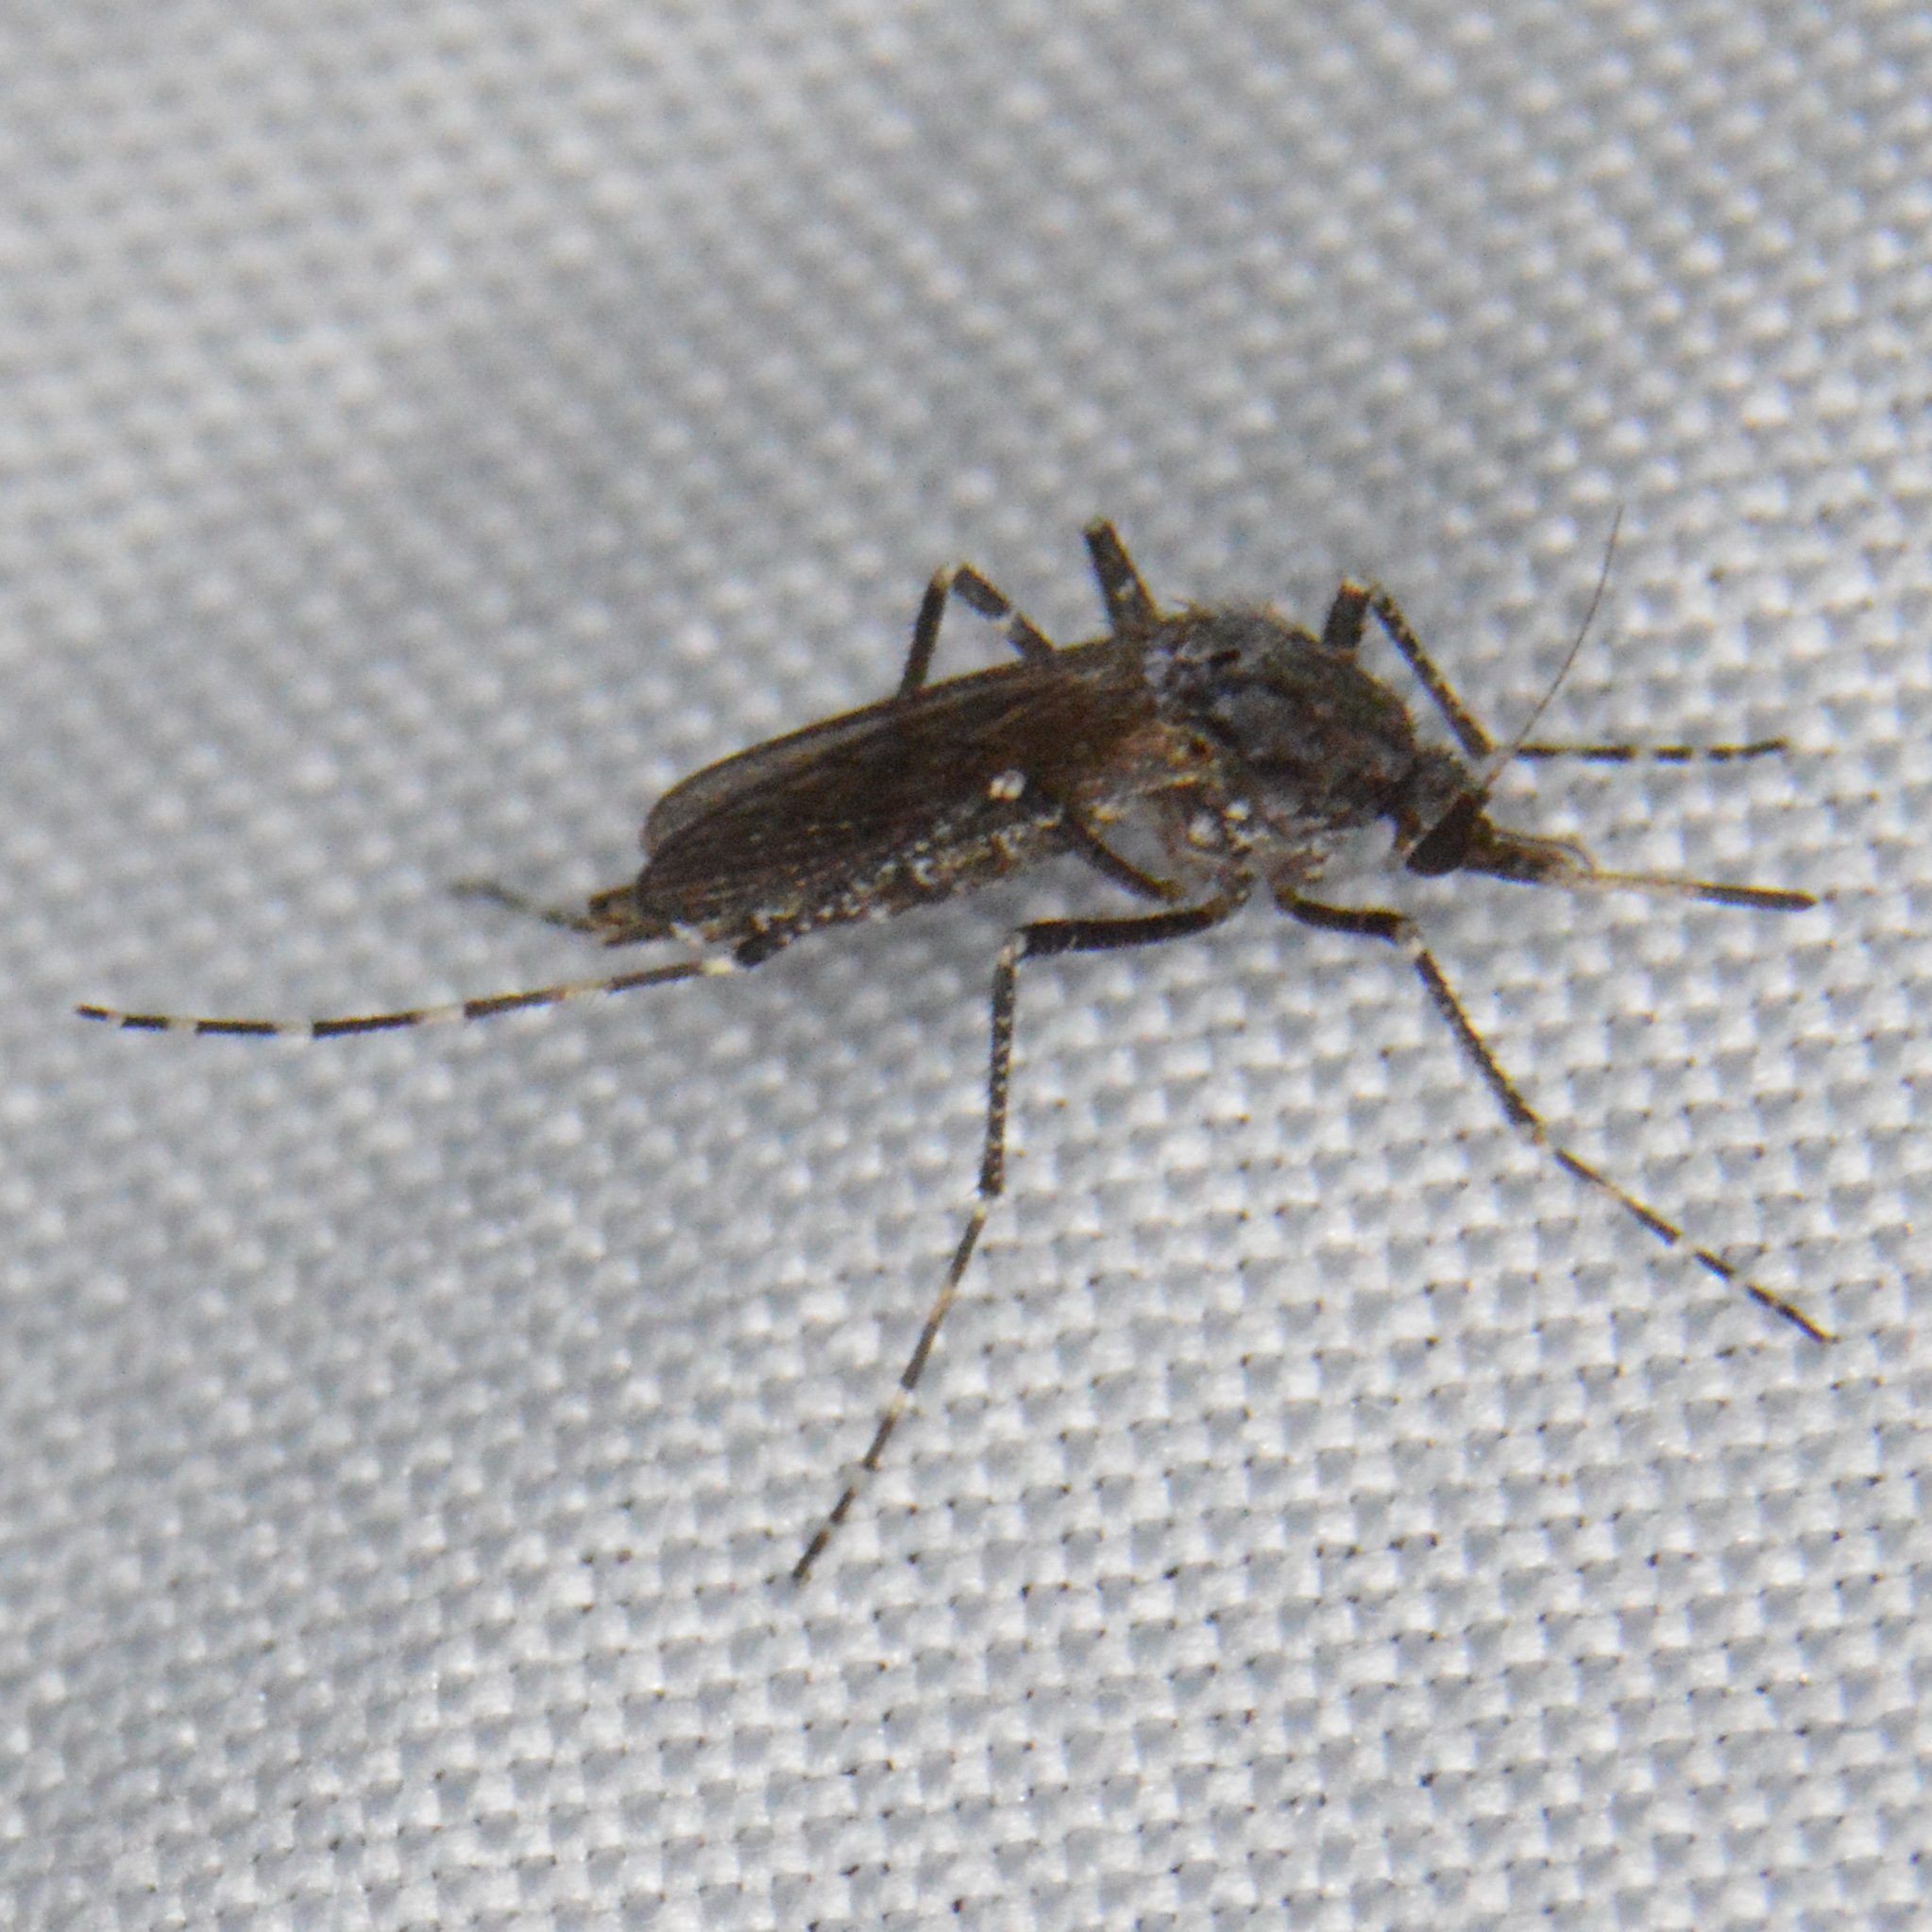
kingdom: Animalia
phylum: Arthropoda
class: Insecta
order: Diptera
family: Culicidae
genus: Psorophora
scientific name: Psorophora columbiae
